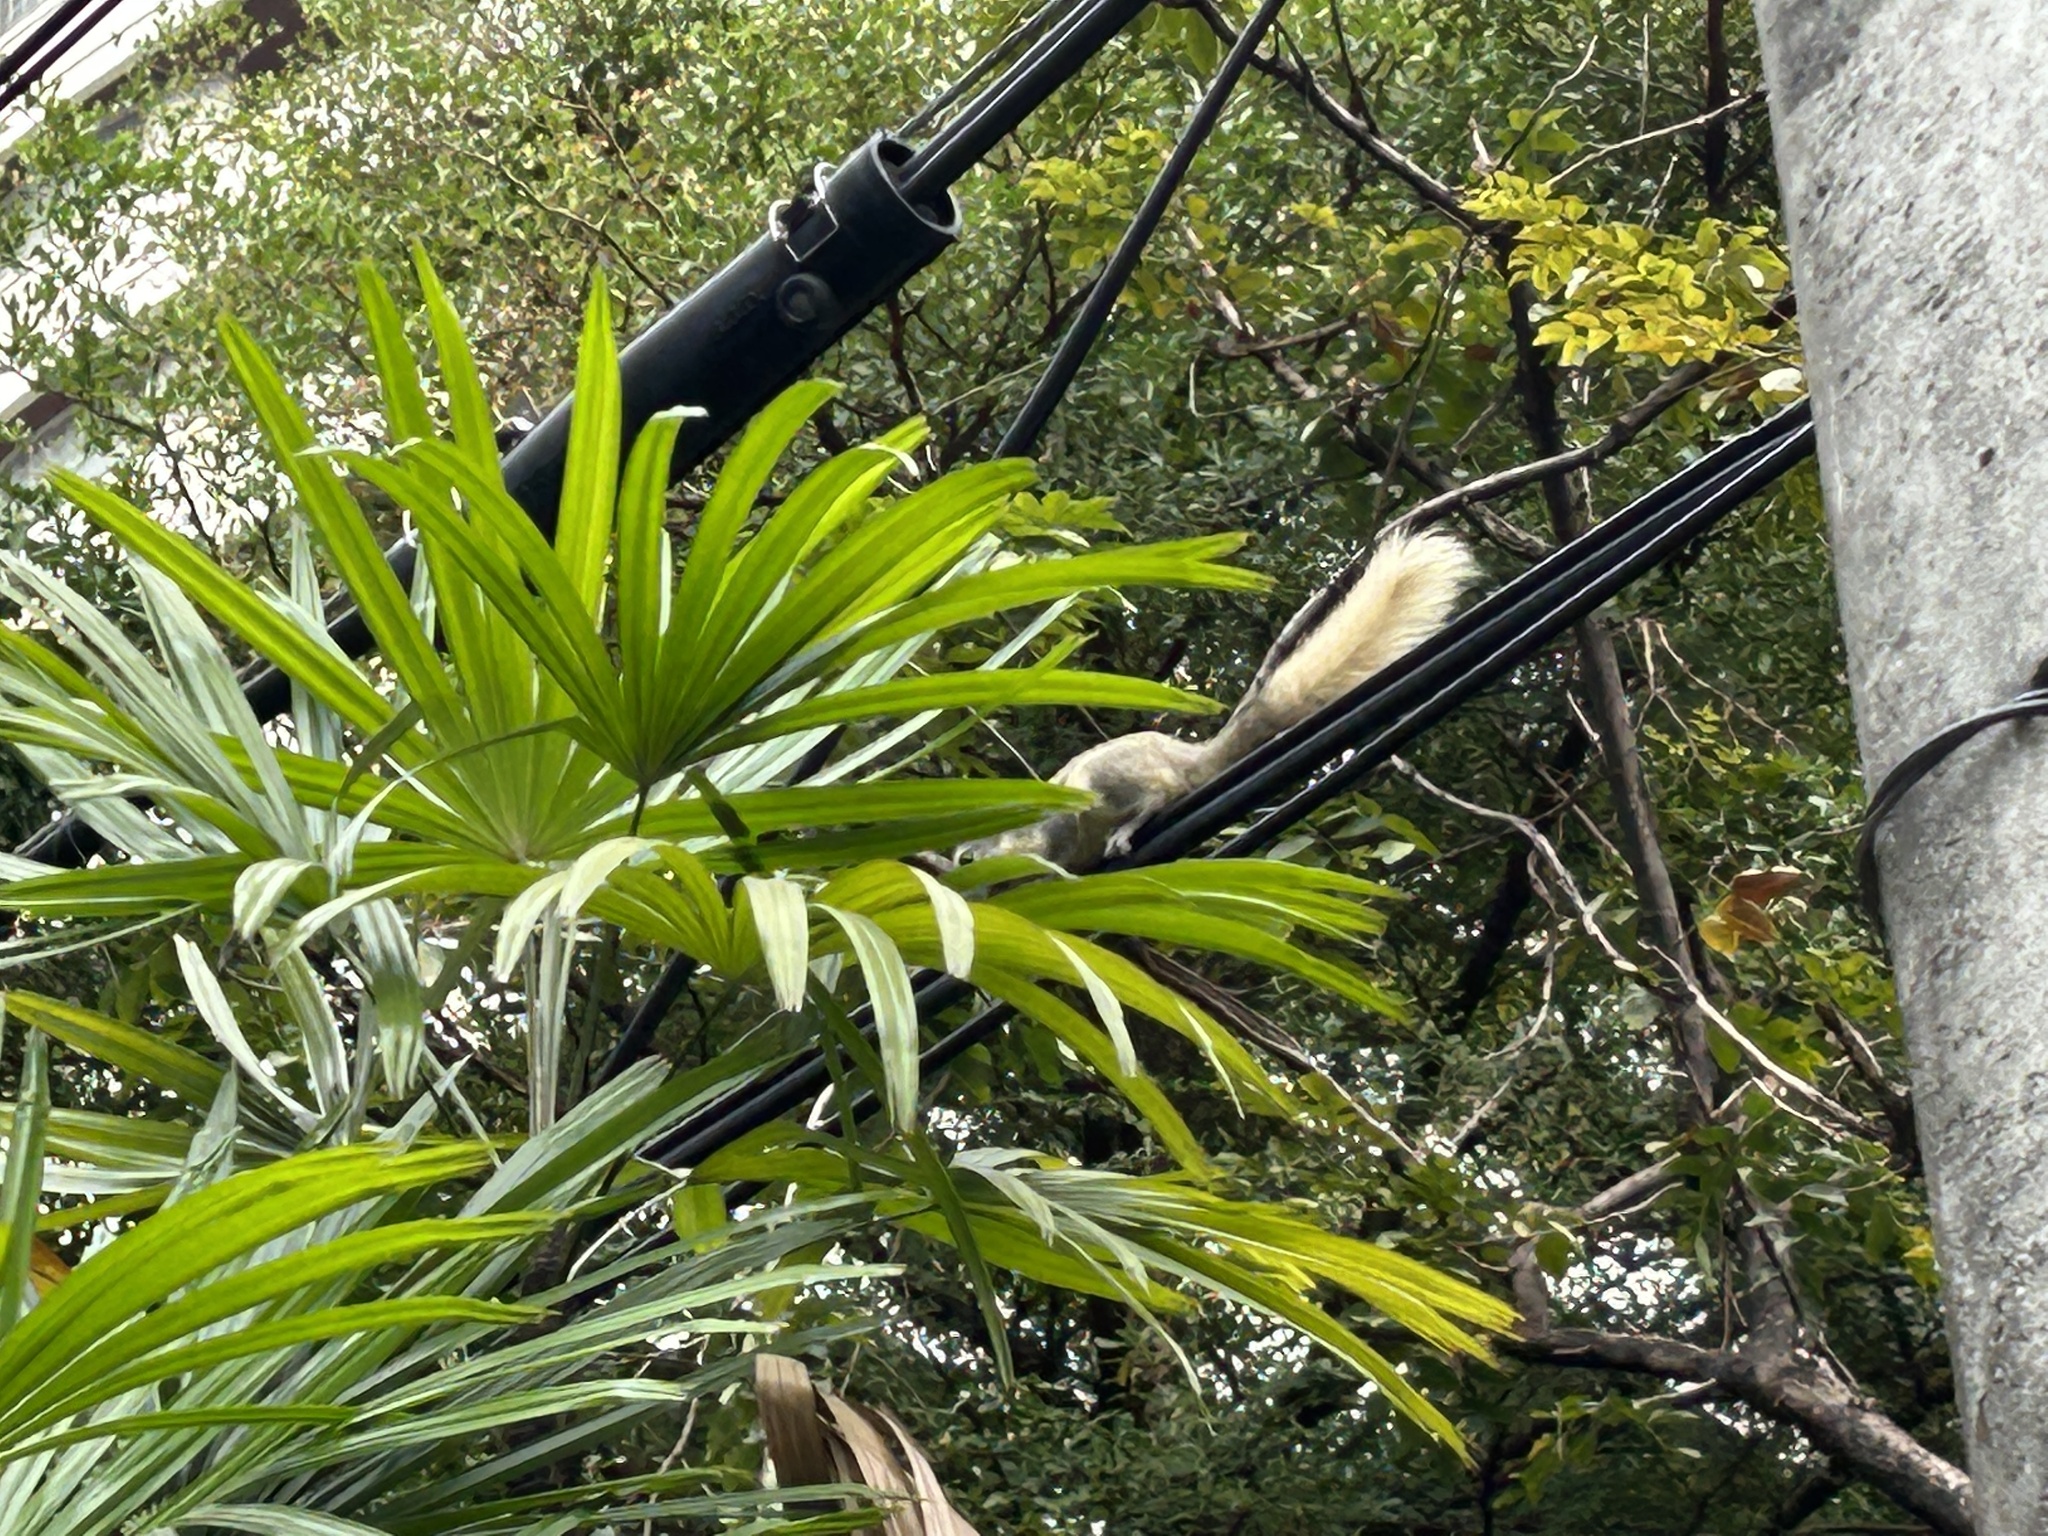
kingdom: Animalia
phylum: Chordata
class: Mammalia
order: Rodentia
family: Sciuridae
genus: Callosciurus
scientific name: Callosciurus finlaysonii
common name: Finlayson's squirrel
